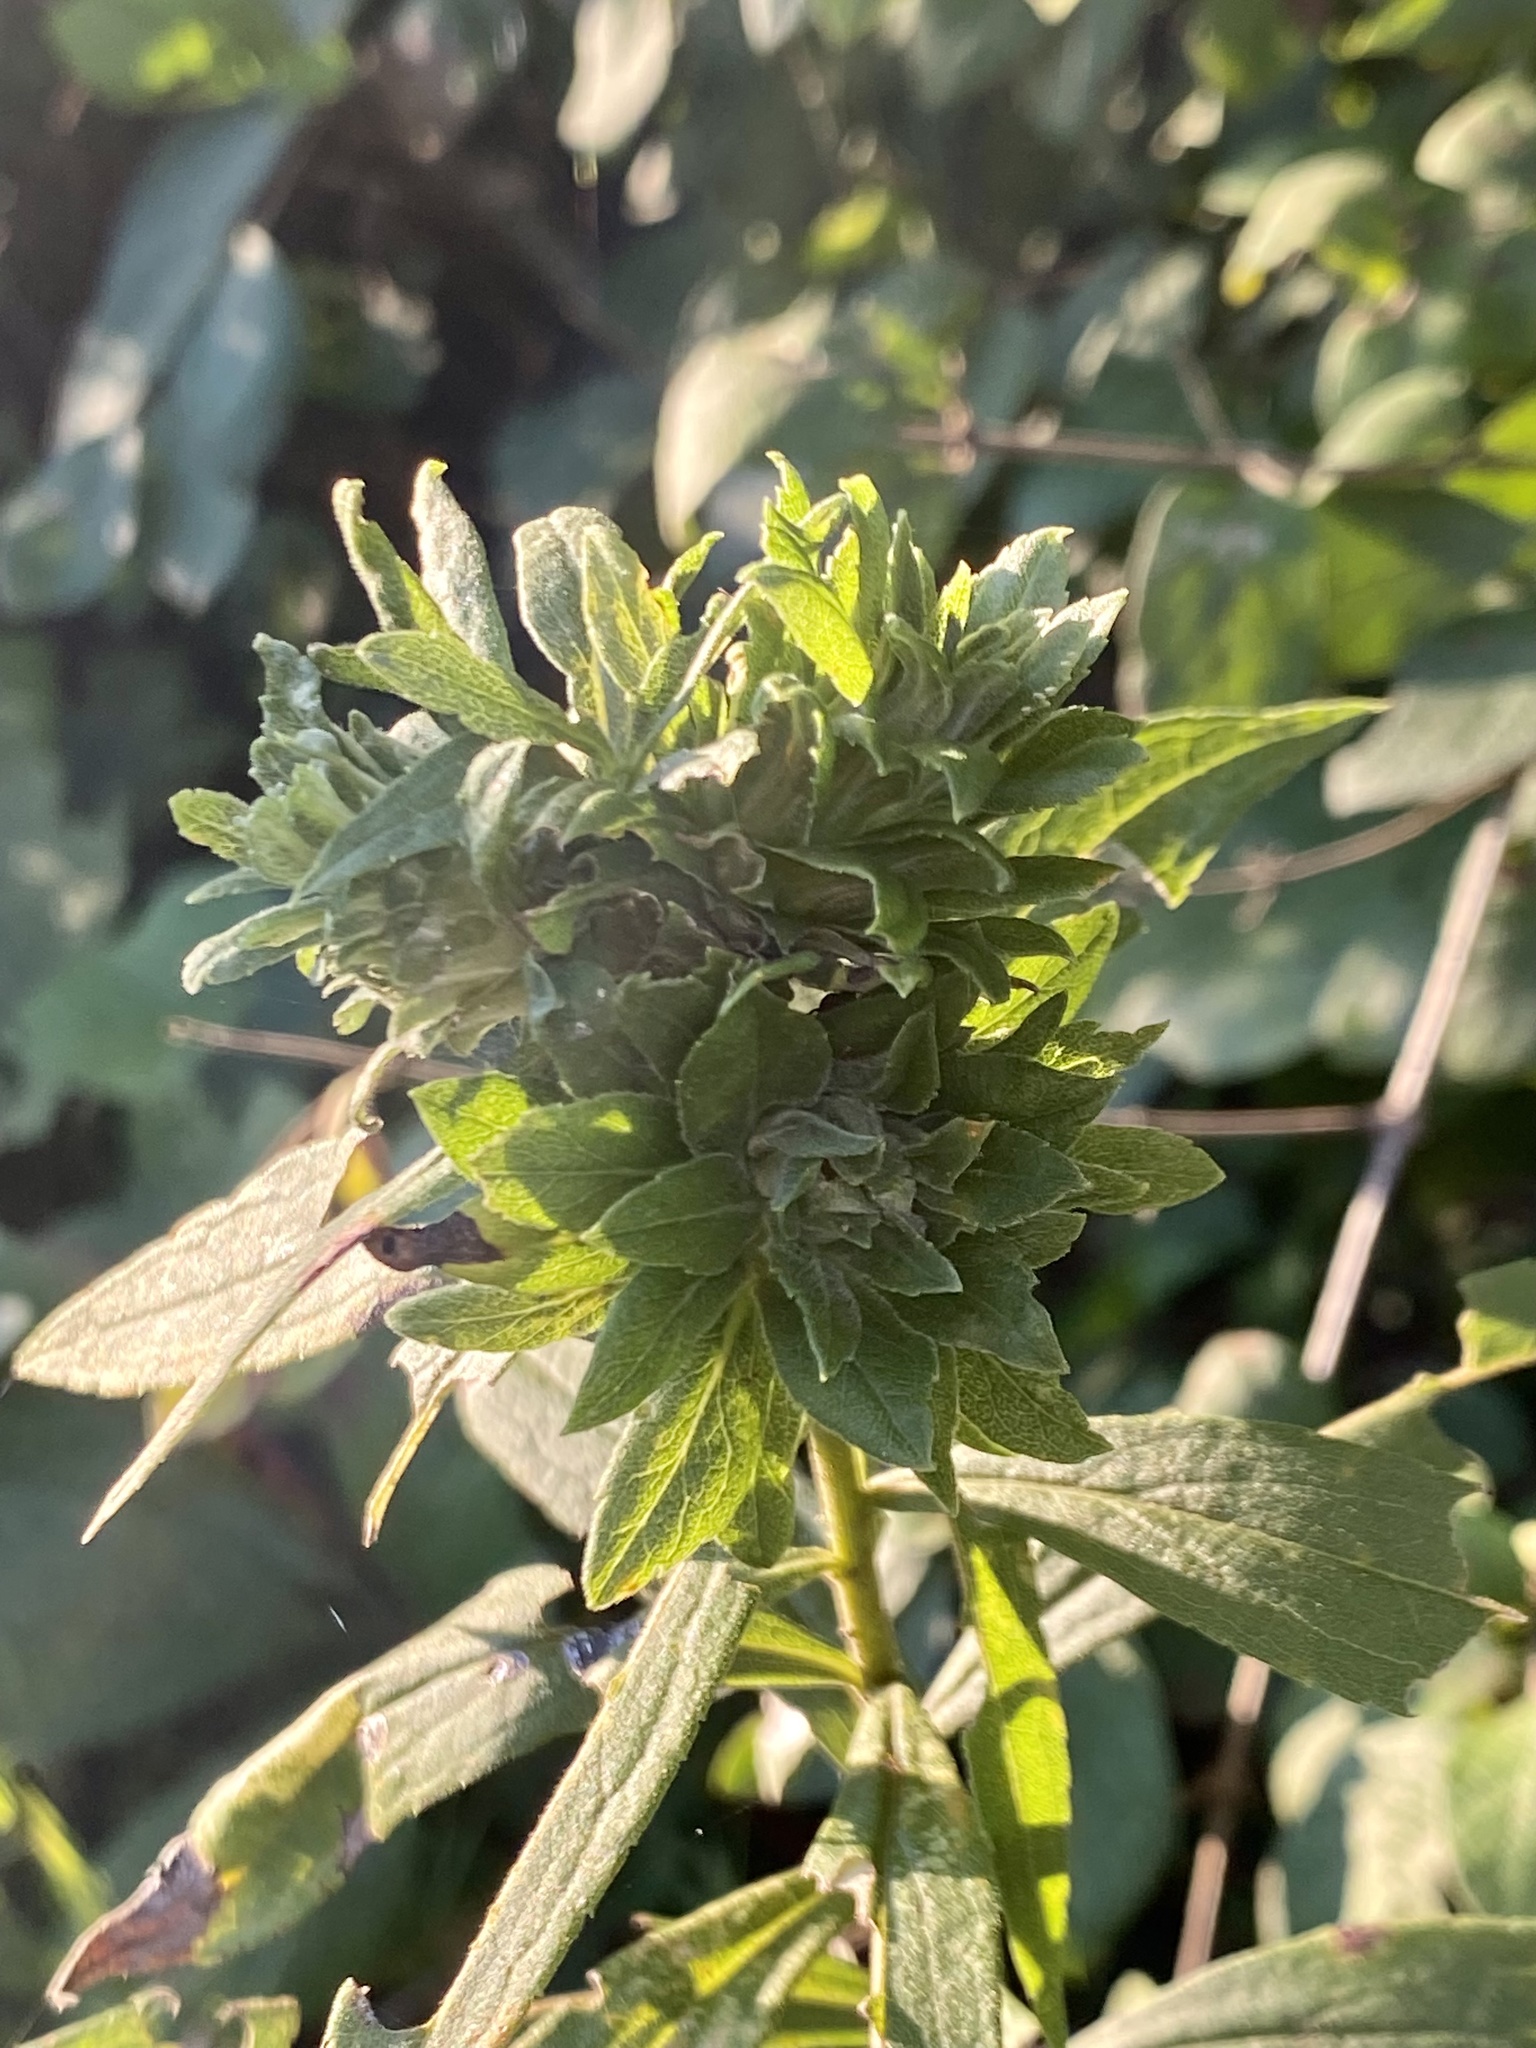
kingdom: Animalia
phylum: Arthropoda
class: Insecta
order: Diptera
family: Tephritidae
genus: Procecidochares
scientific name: Procecidochares atra
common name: Goldenrod brussels sprout gall fly
